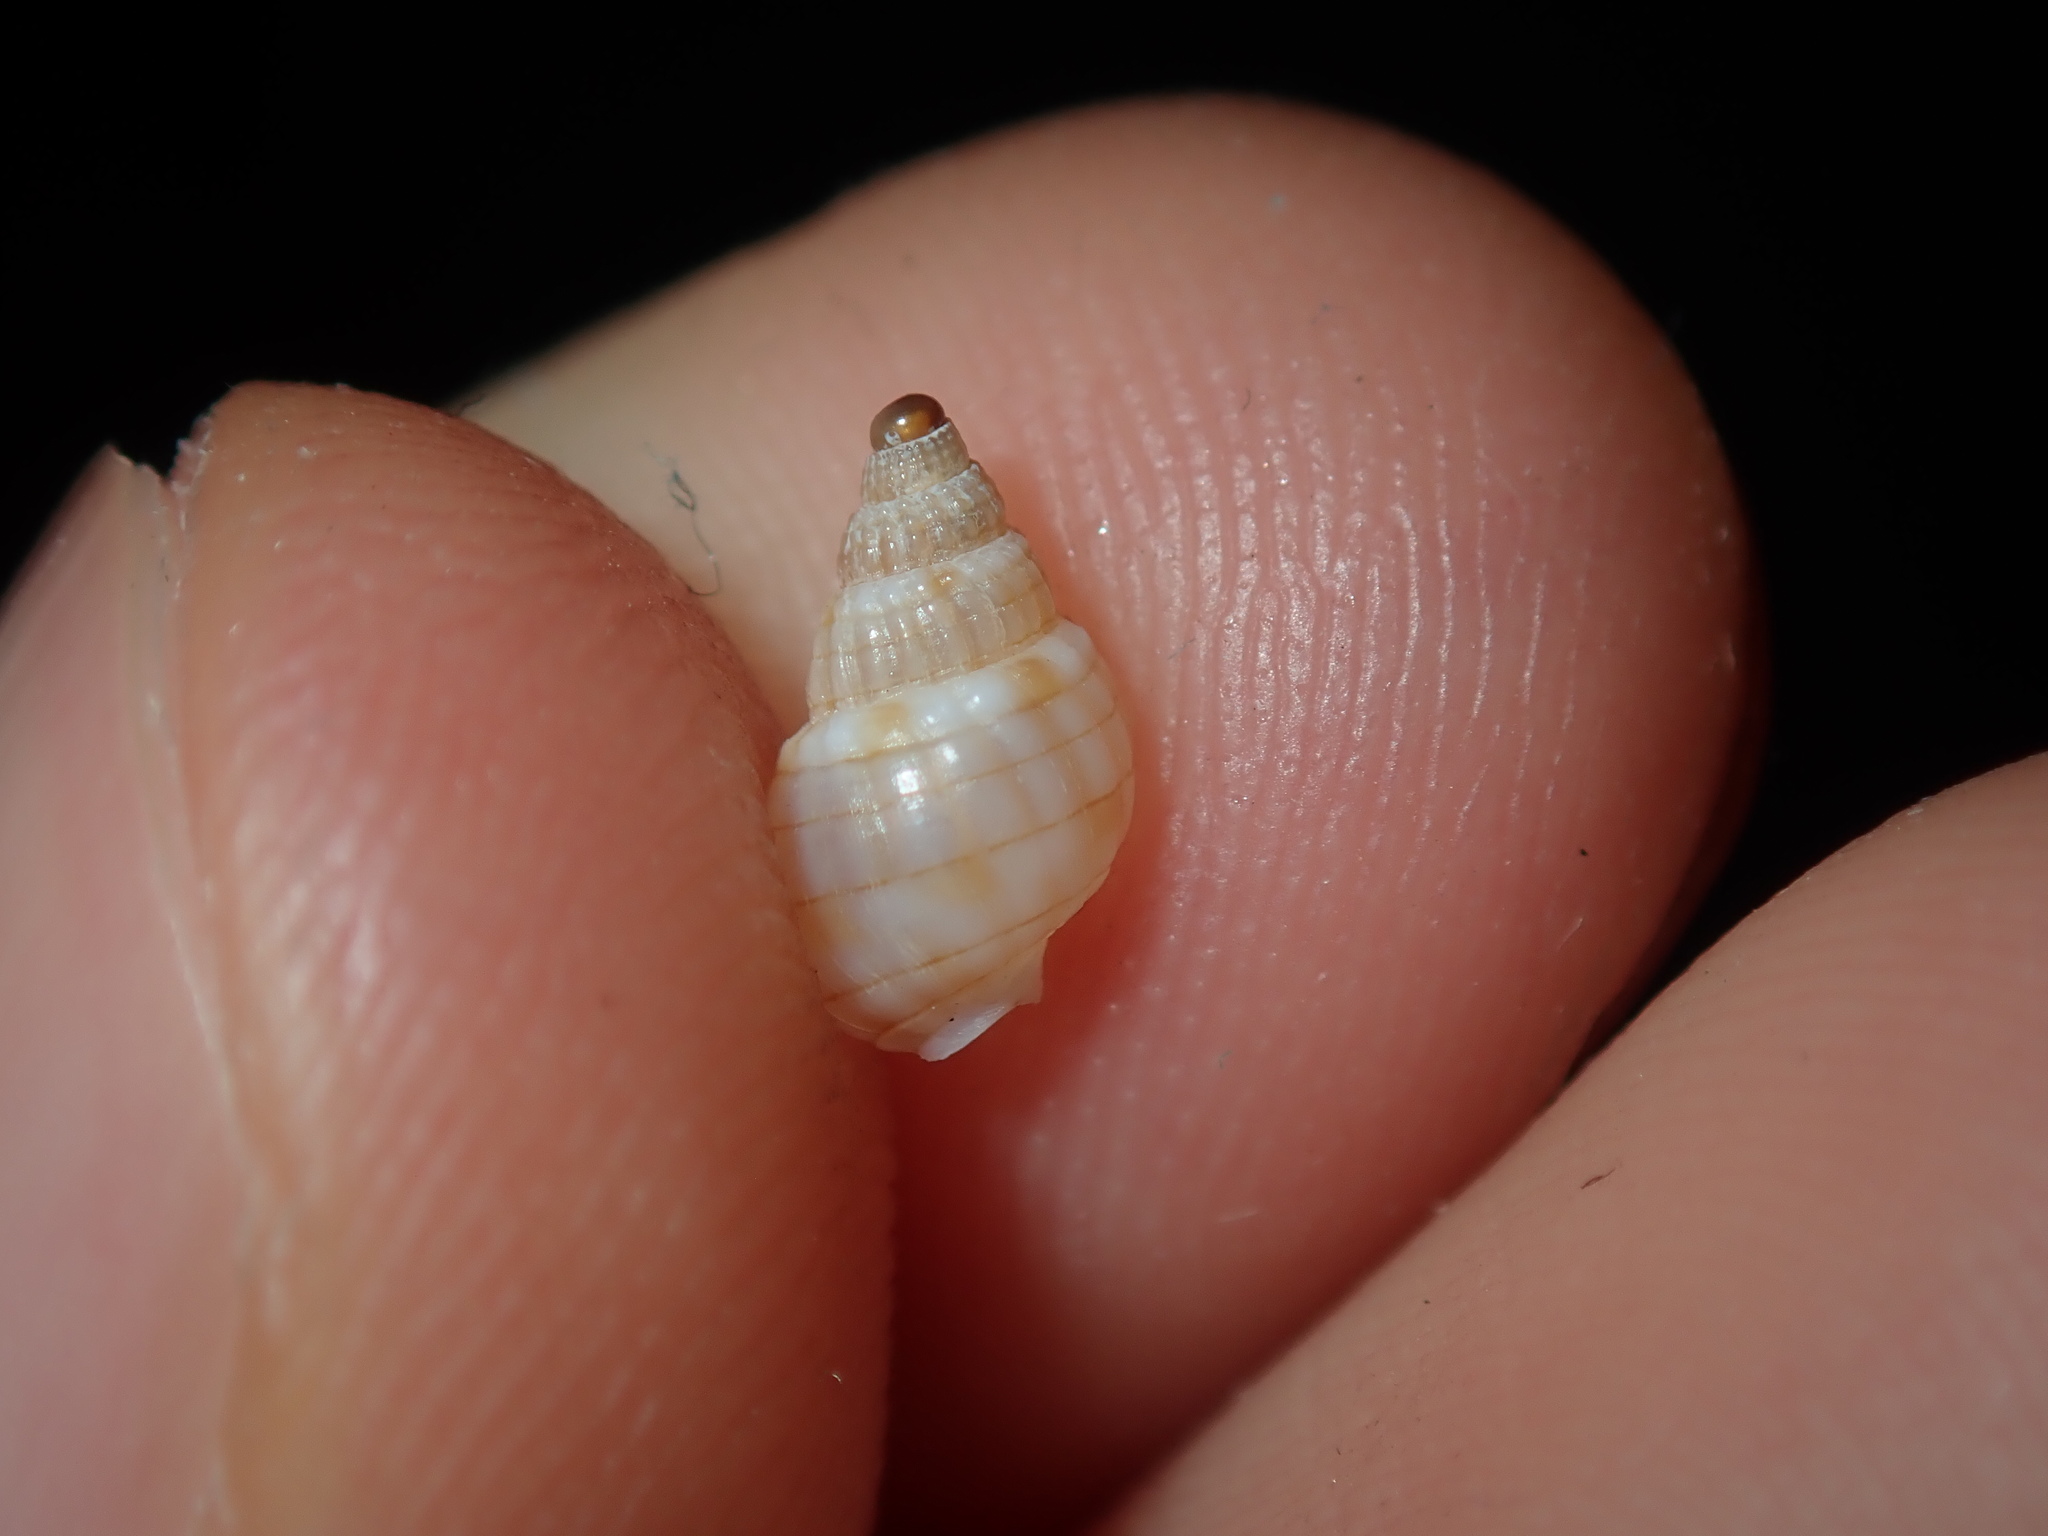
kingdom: Animalia
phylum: Mollusca
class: Gastropoda
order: Neogastropoda
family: Nassariidae
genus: Nassarius
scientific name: Nassarius particeps
